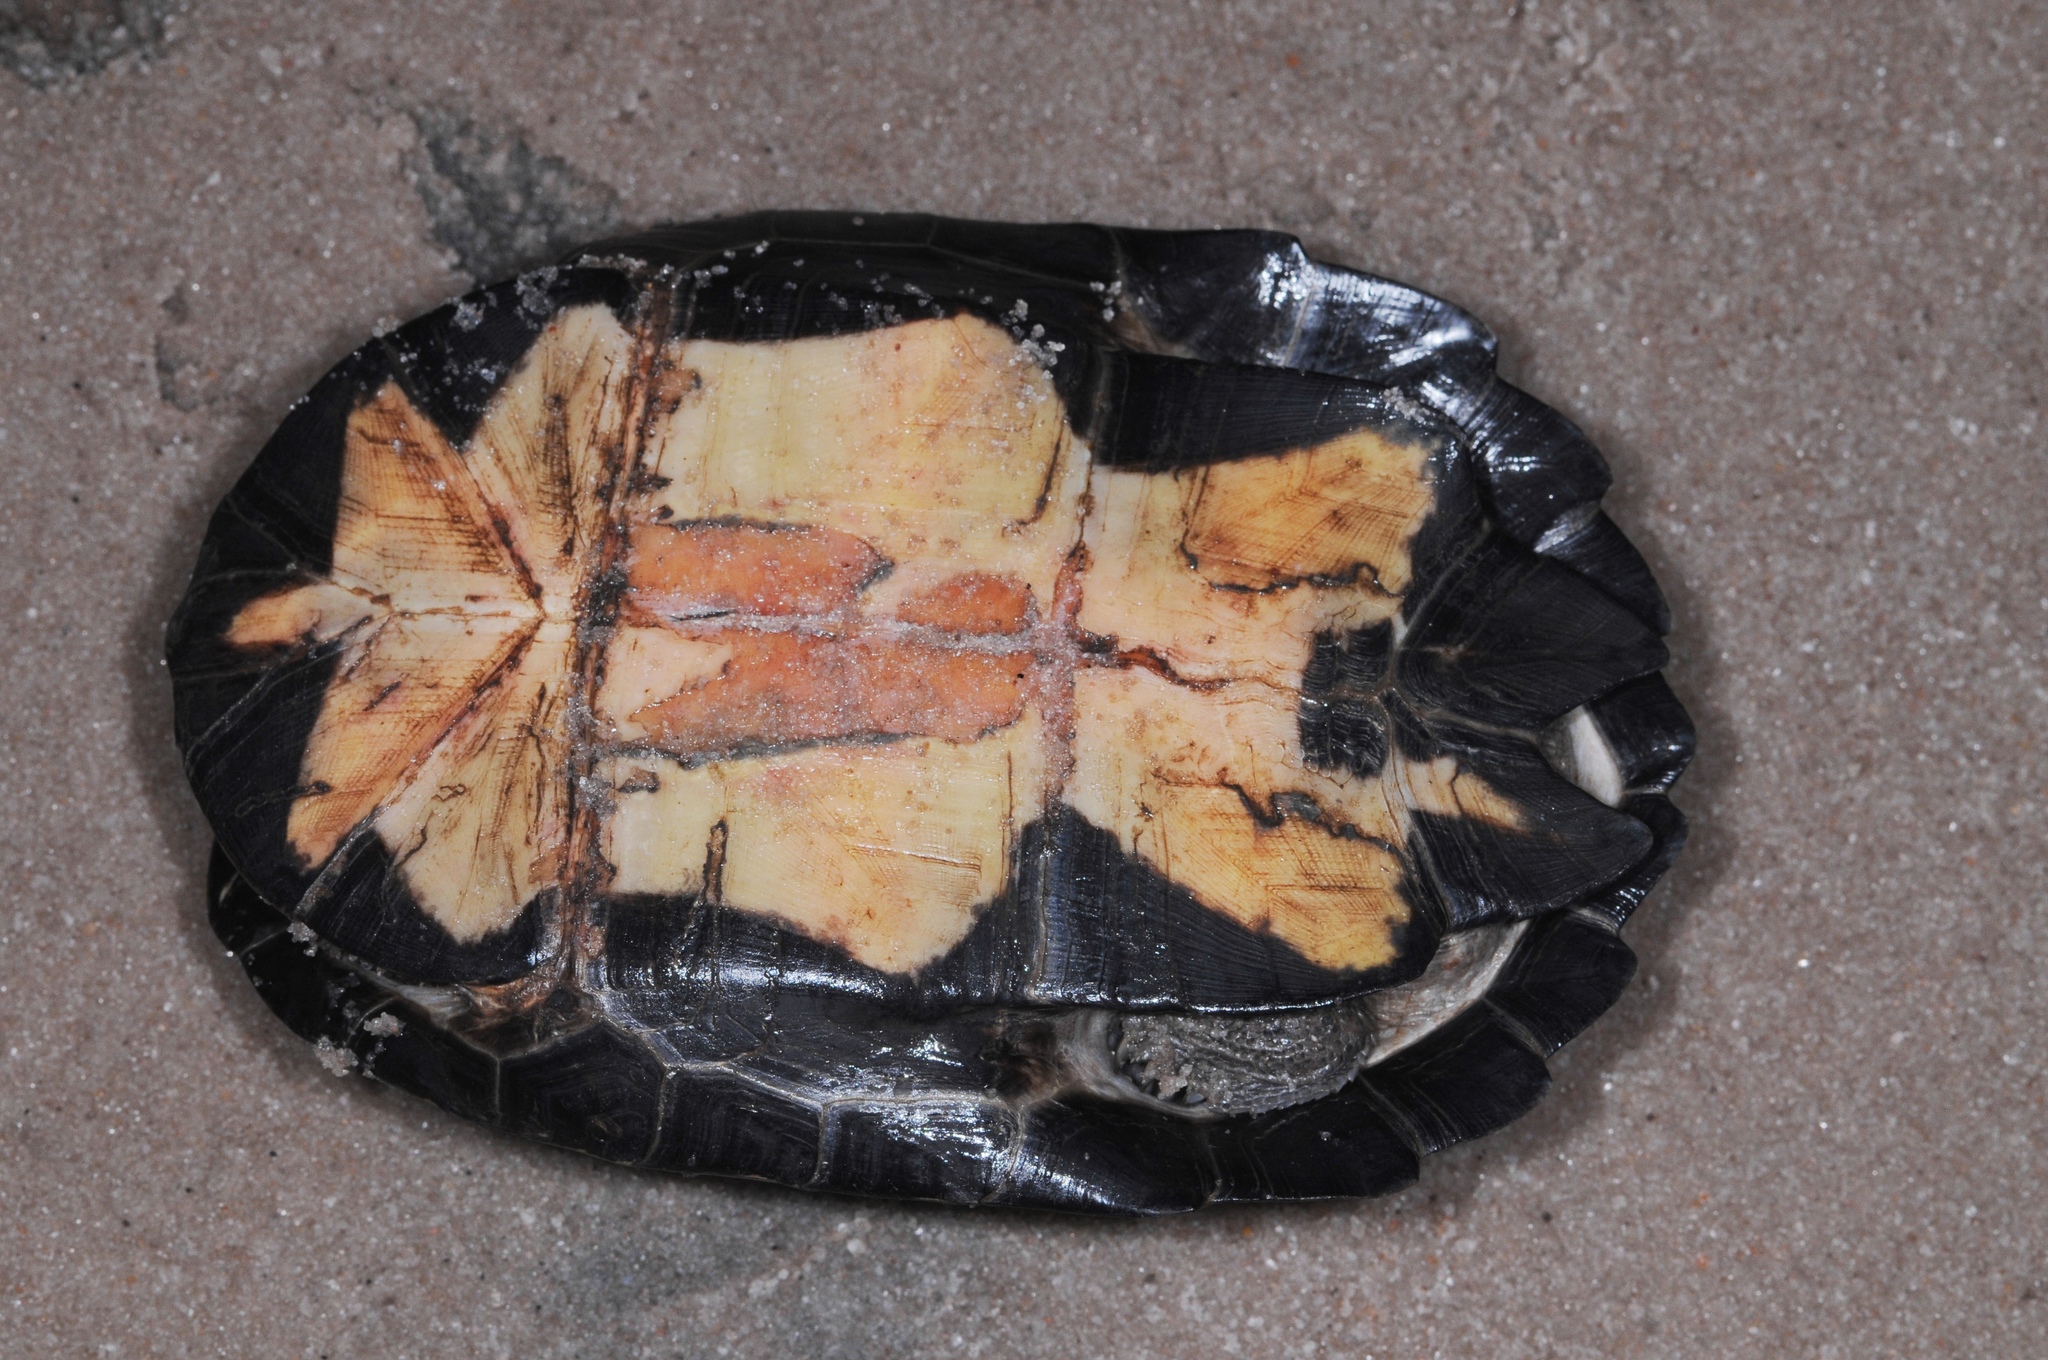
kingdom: Animalia
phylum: Chordata
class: Testudines
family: Pelomedusidae
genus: Pelusios
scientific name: Pelusios sinuatus
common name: Serrated hinged terrapin
